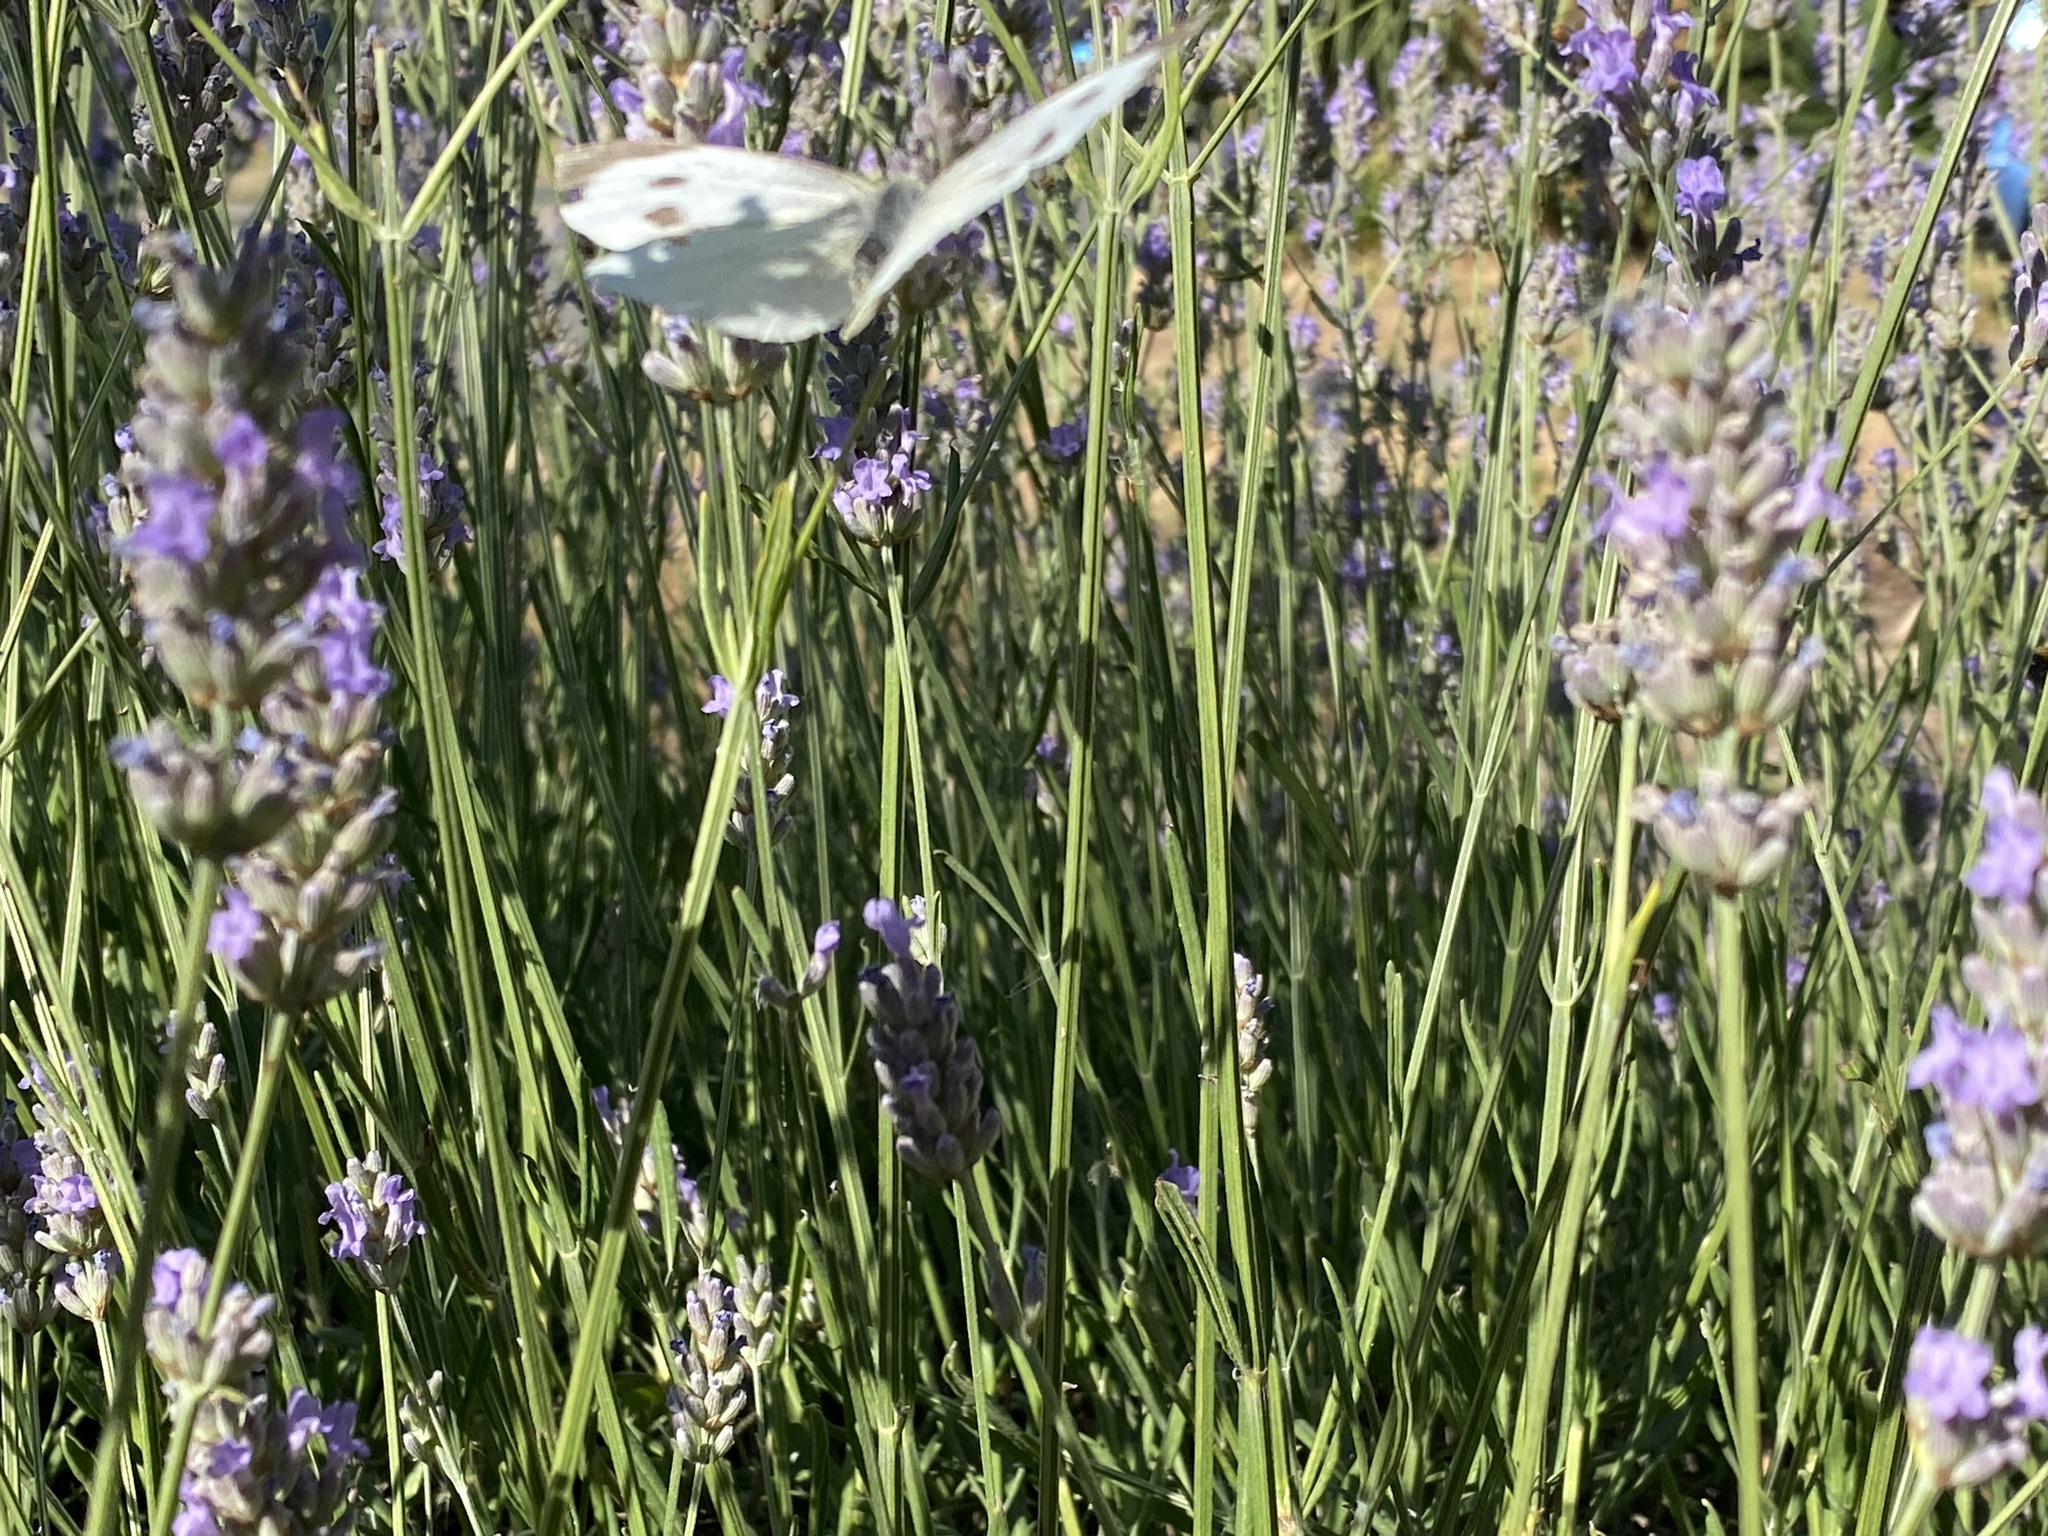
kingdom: Animalia
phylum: Arthropoda
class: Insecta
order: Lepidoptera
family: Pieridae
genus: Pieris
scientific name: Pieris brassicae
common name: Large white
